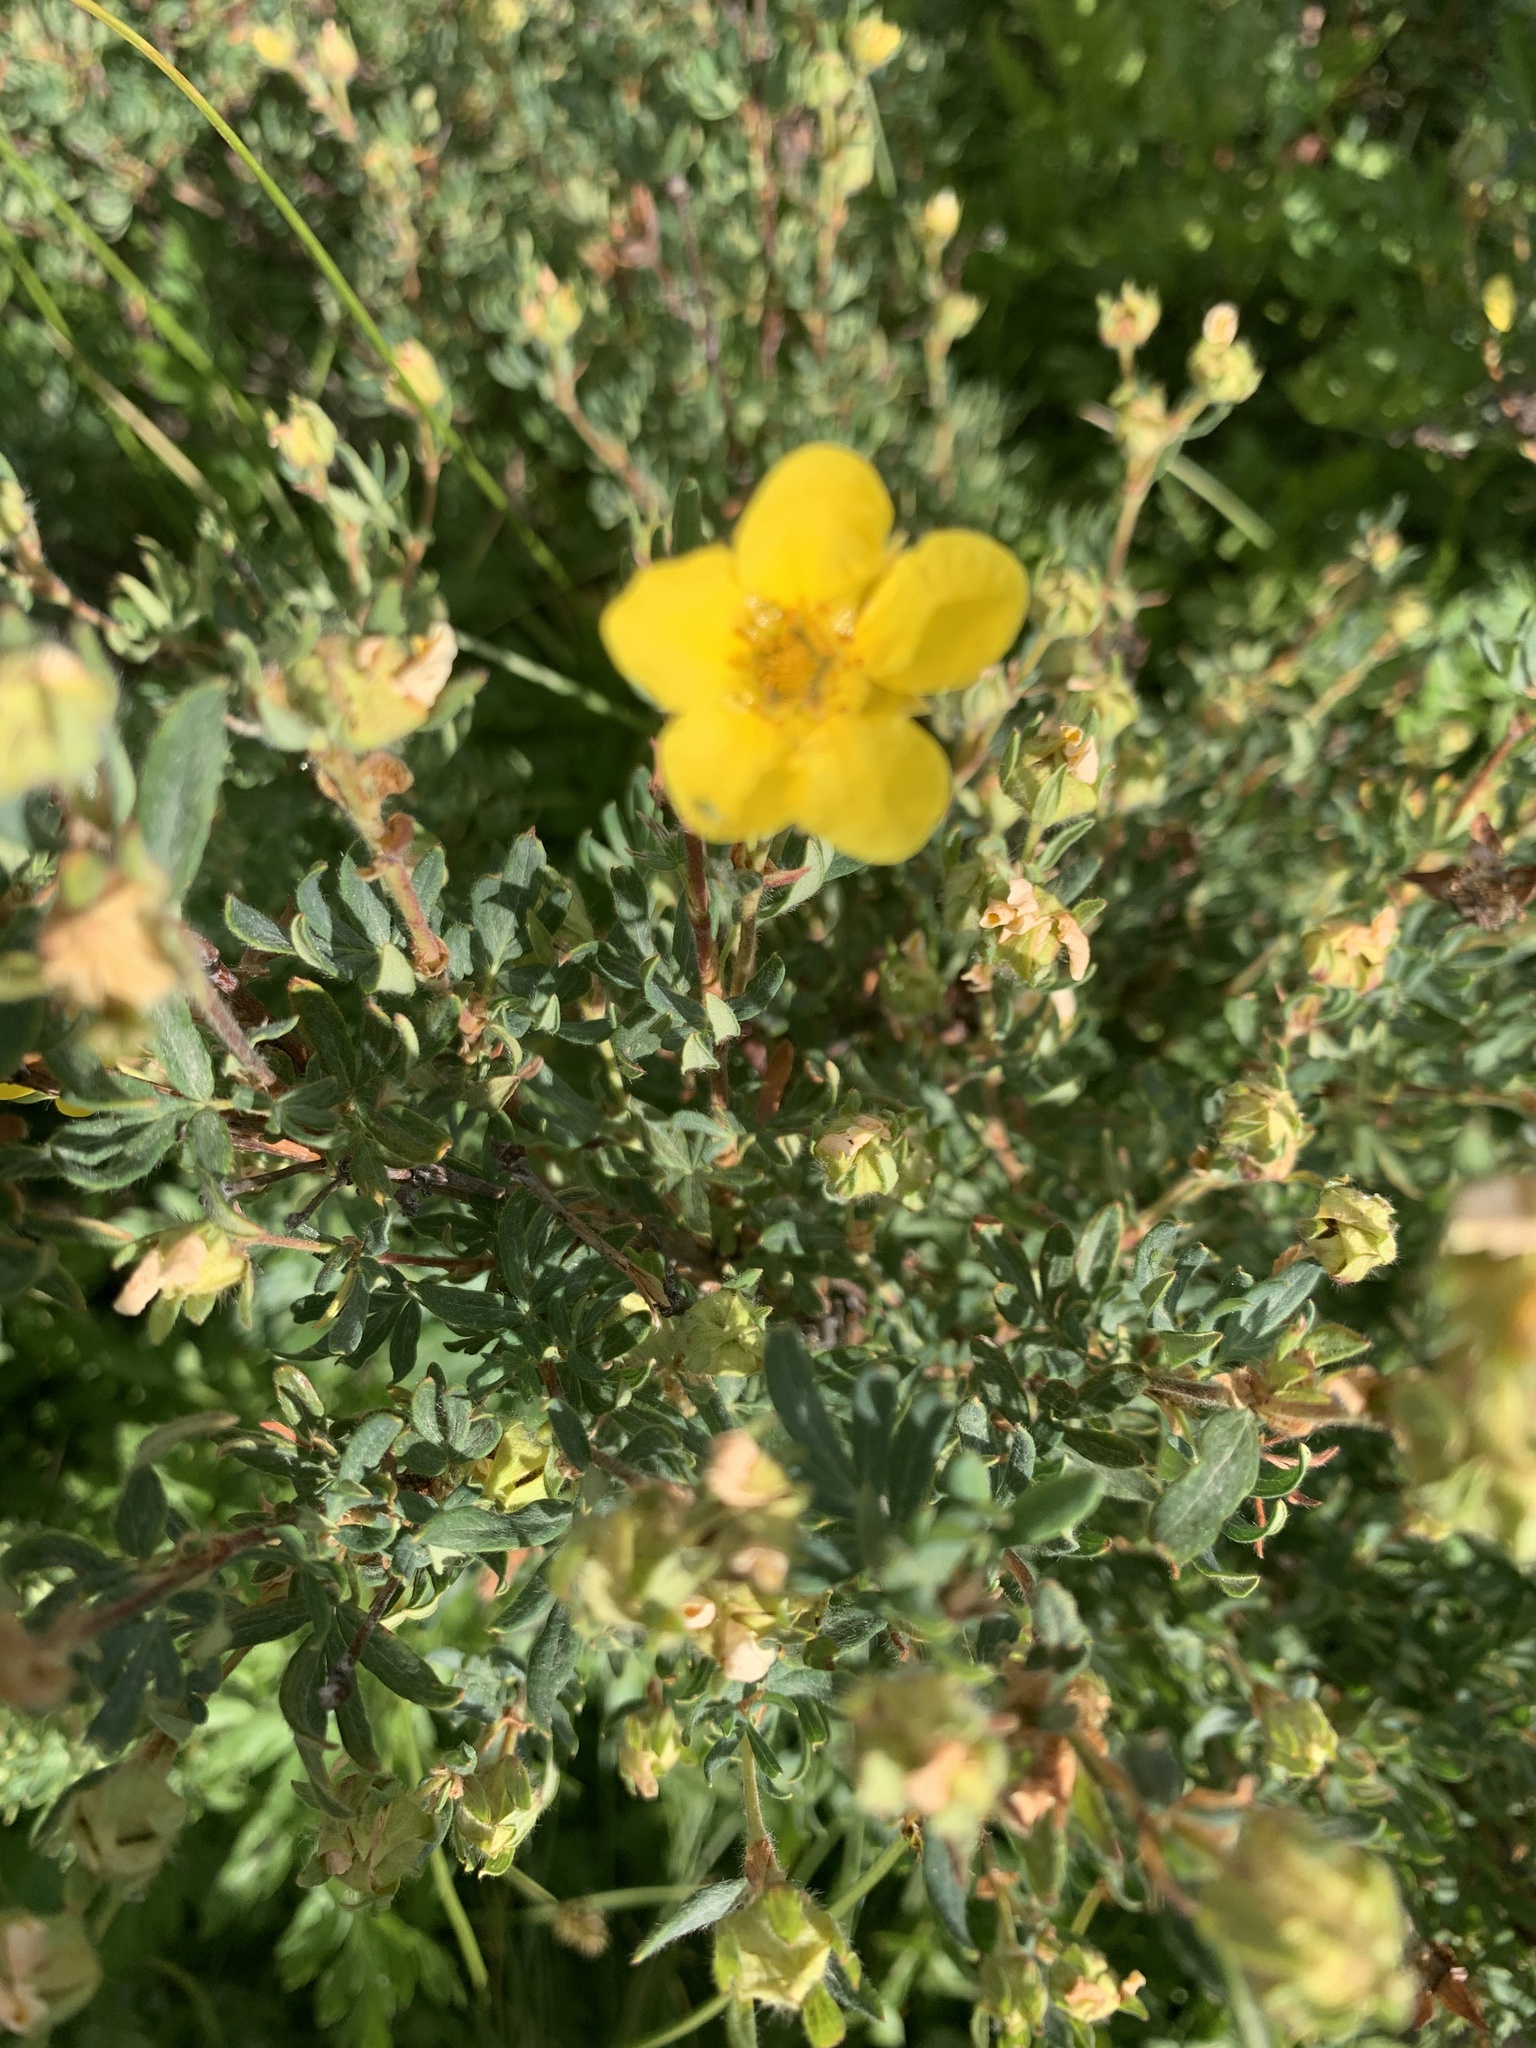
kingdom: Plantae
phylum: Tracheophyta
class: Magnoliopsida
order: Rosales
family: Rosaceae
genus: Dasiphora
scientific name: Dasiphora fruticosa
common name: Shrubby cinquefoil
